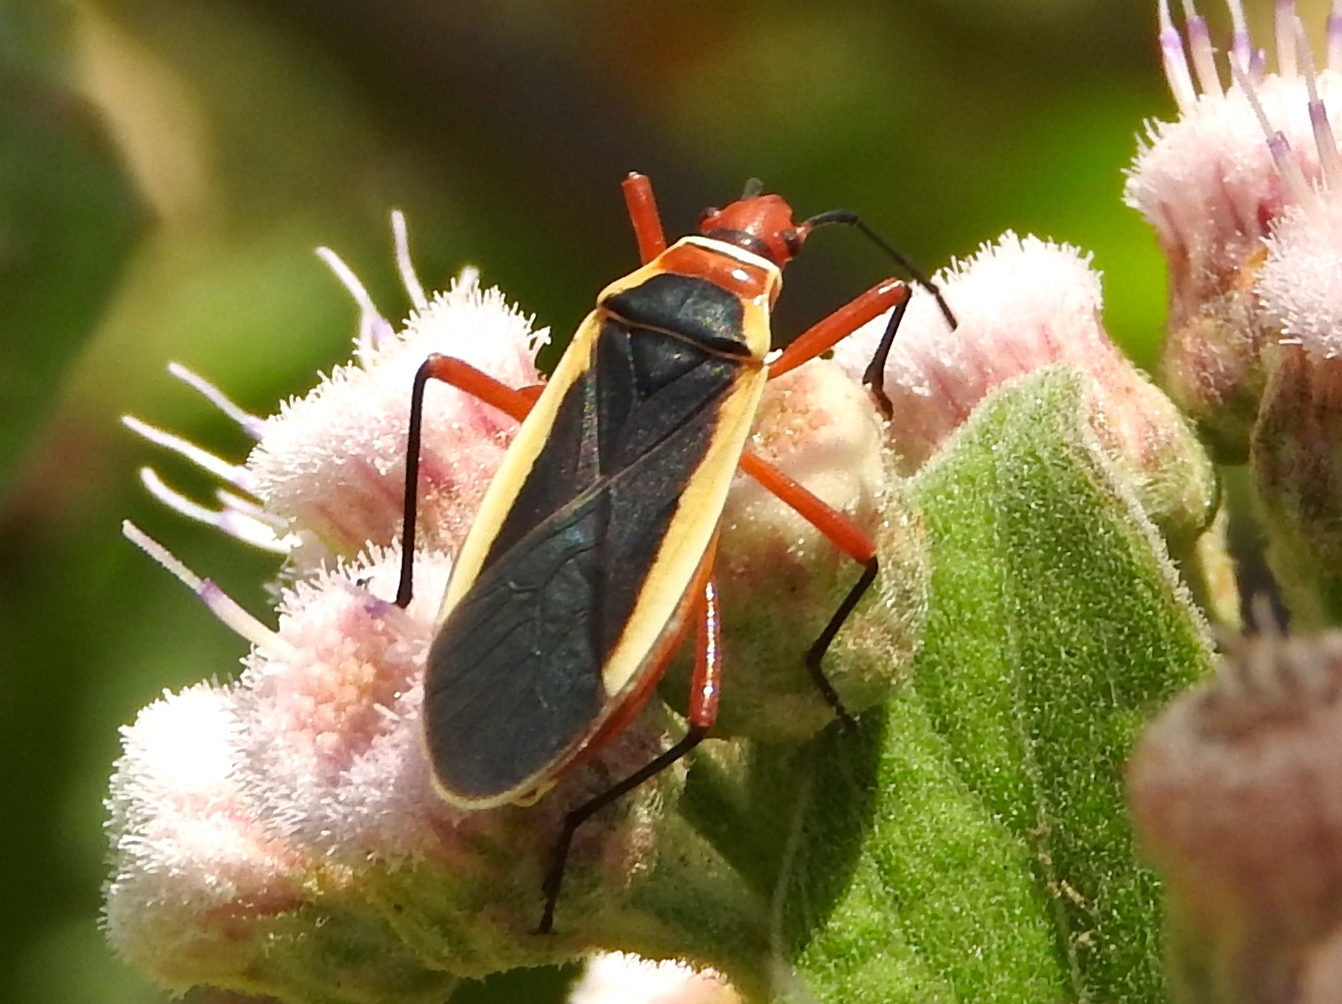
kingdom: Animalia
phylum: Arthropoda
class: Insecta
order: Hemiptera
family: Pyrrhocoridae
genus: Dysdercus
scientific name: Dysdercus obscuratus
